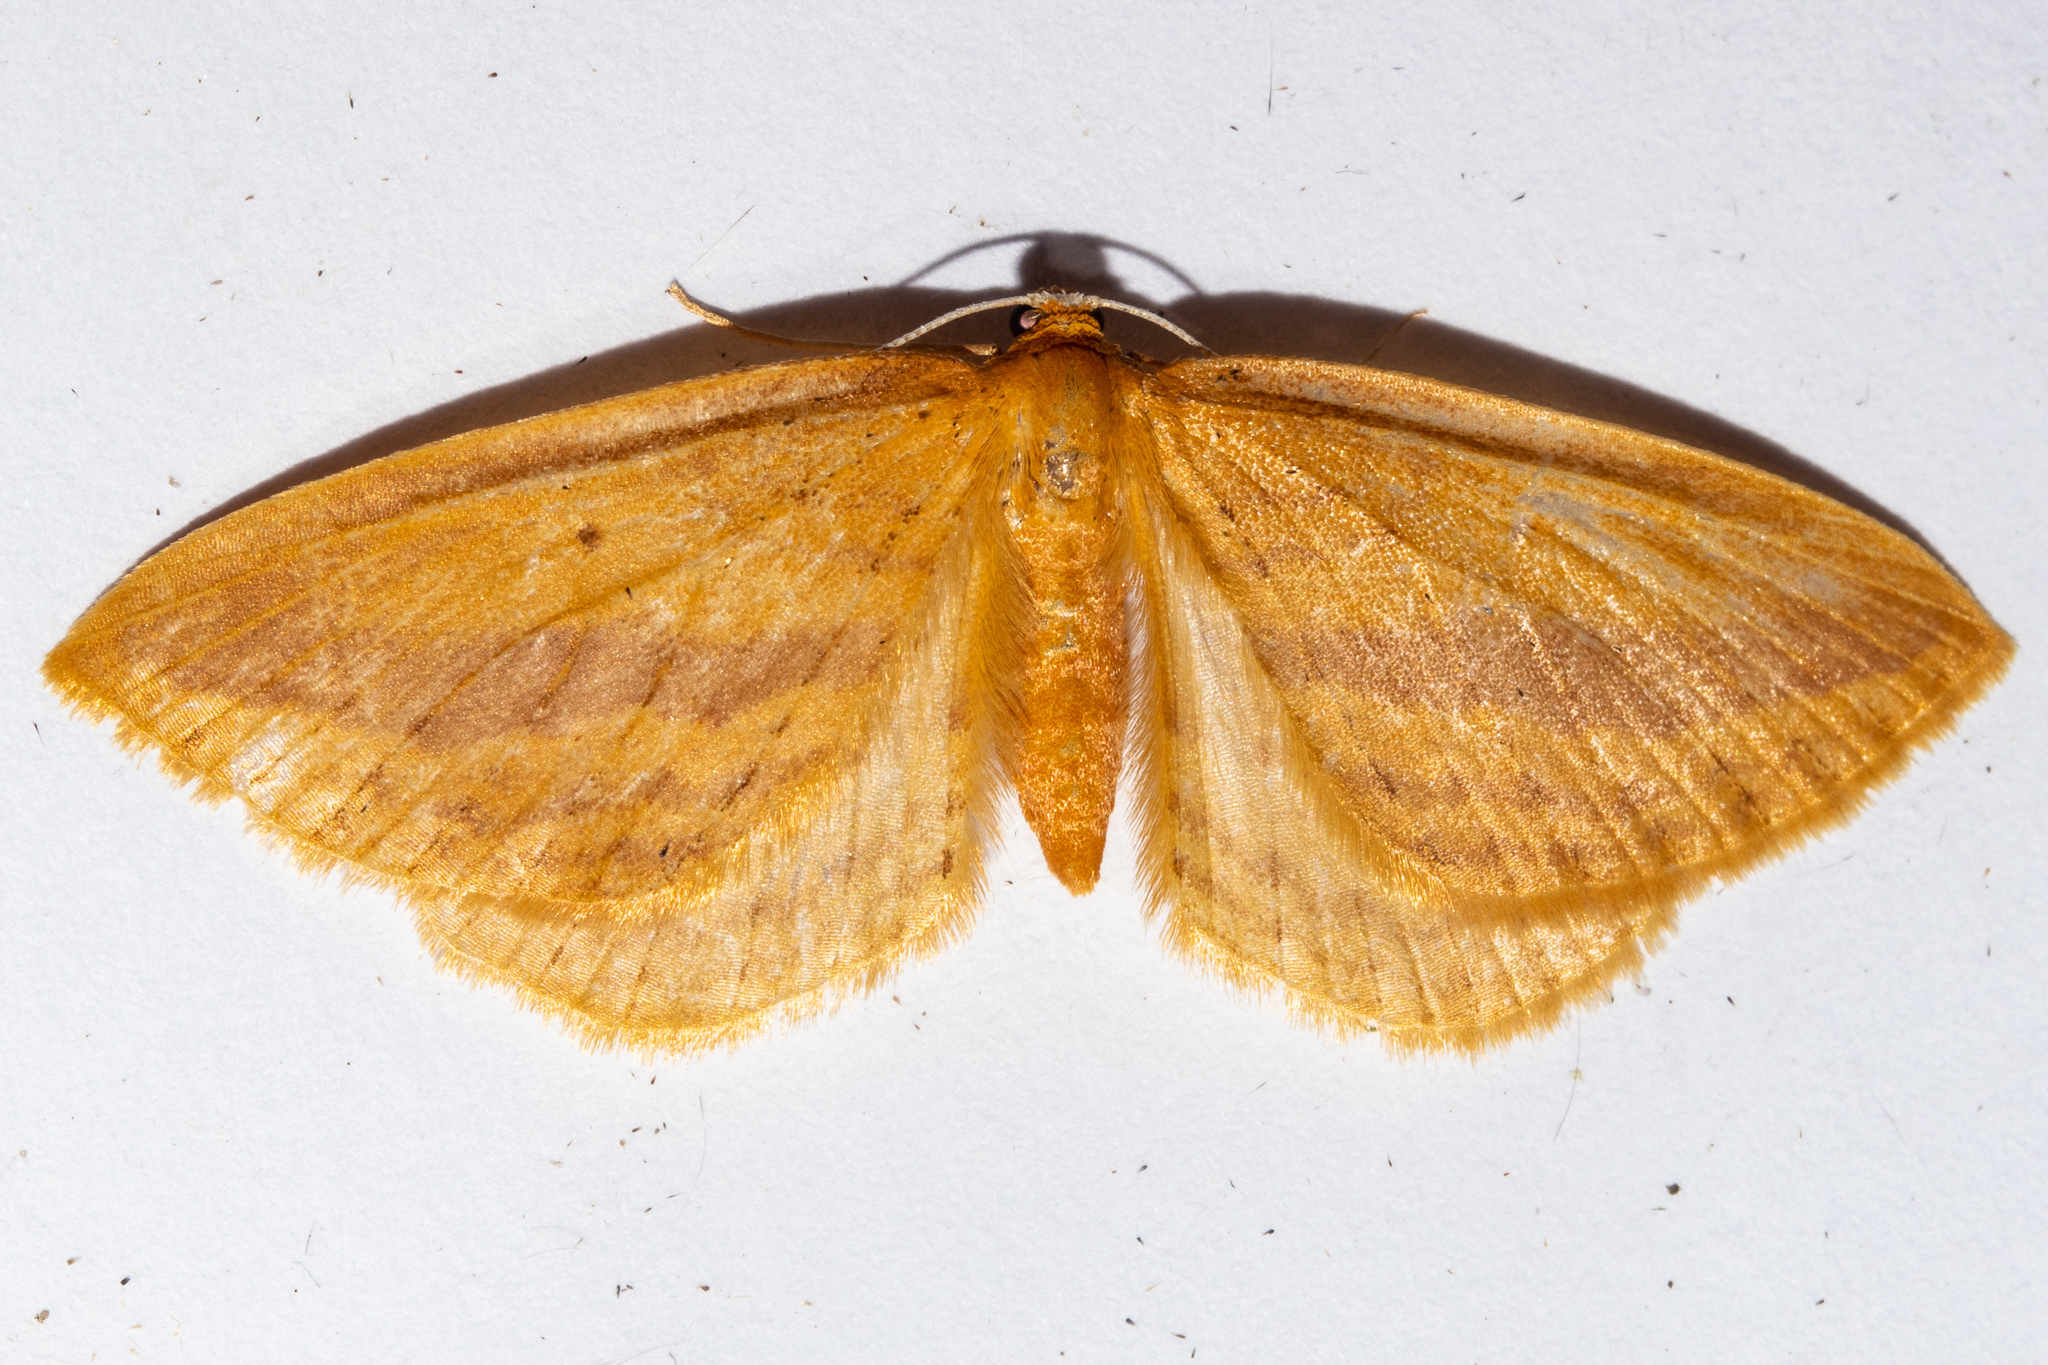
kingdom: Animalia
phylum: Arthropoda
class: Insecta
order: Lepidoptera
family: Geometridae
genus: Epiphryne
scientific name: Epiphryne charidema
